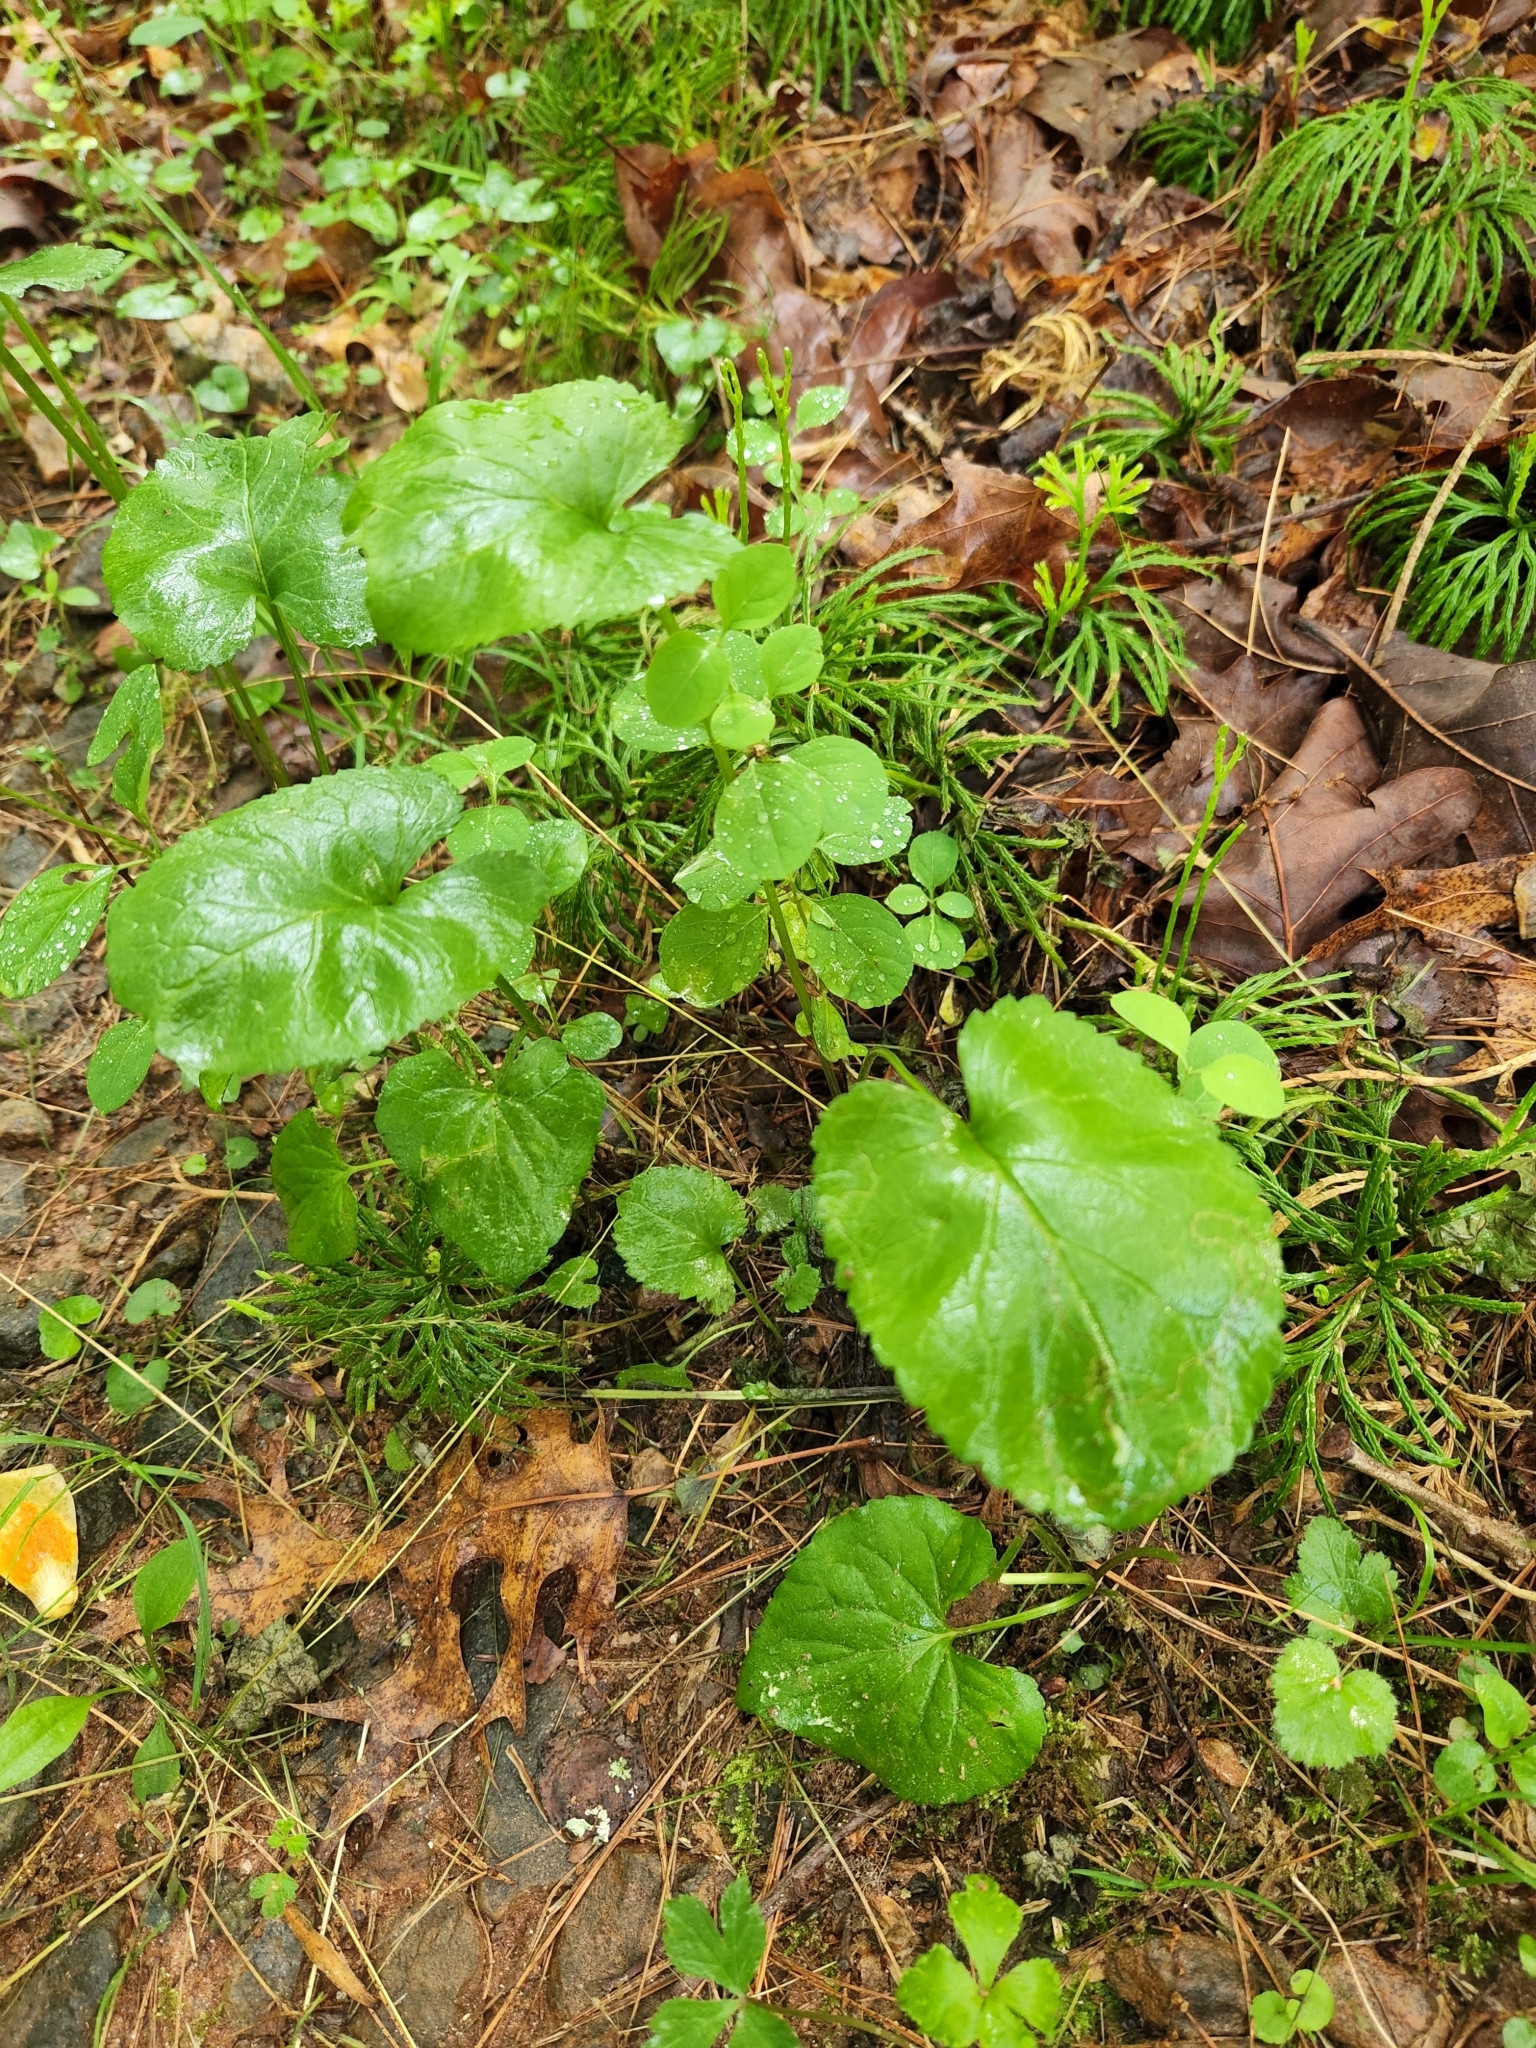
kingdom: Plantae
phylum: Tracheophyta
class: Magnoliopsida
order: Asterales
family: Asteraceae
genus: Packera
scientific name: Packera aurea
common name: Golden groundsel
